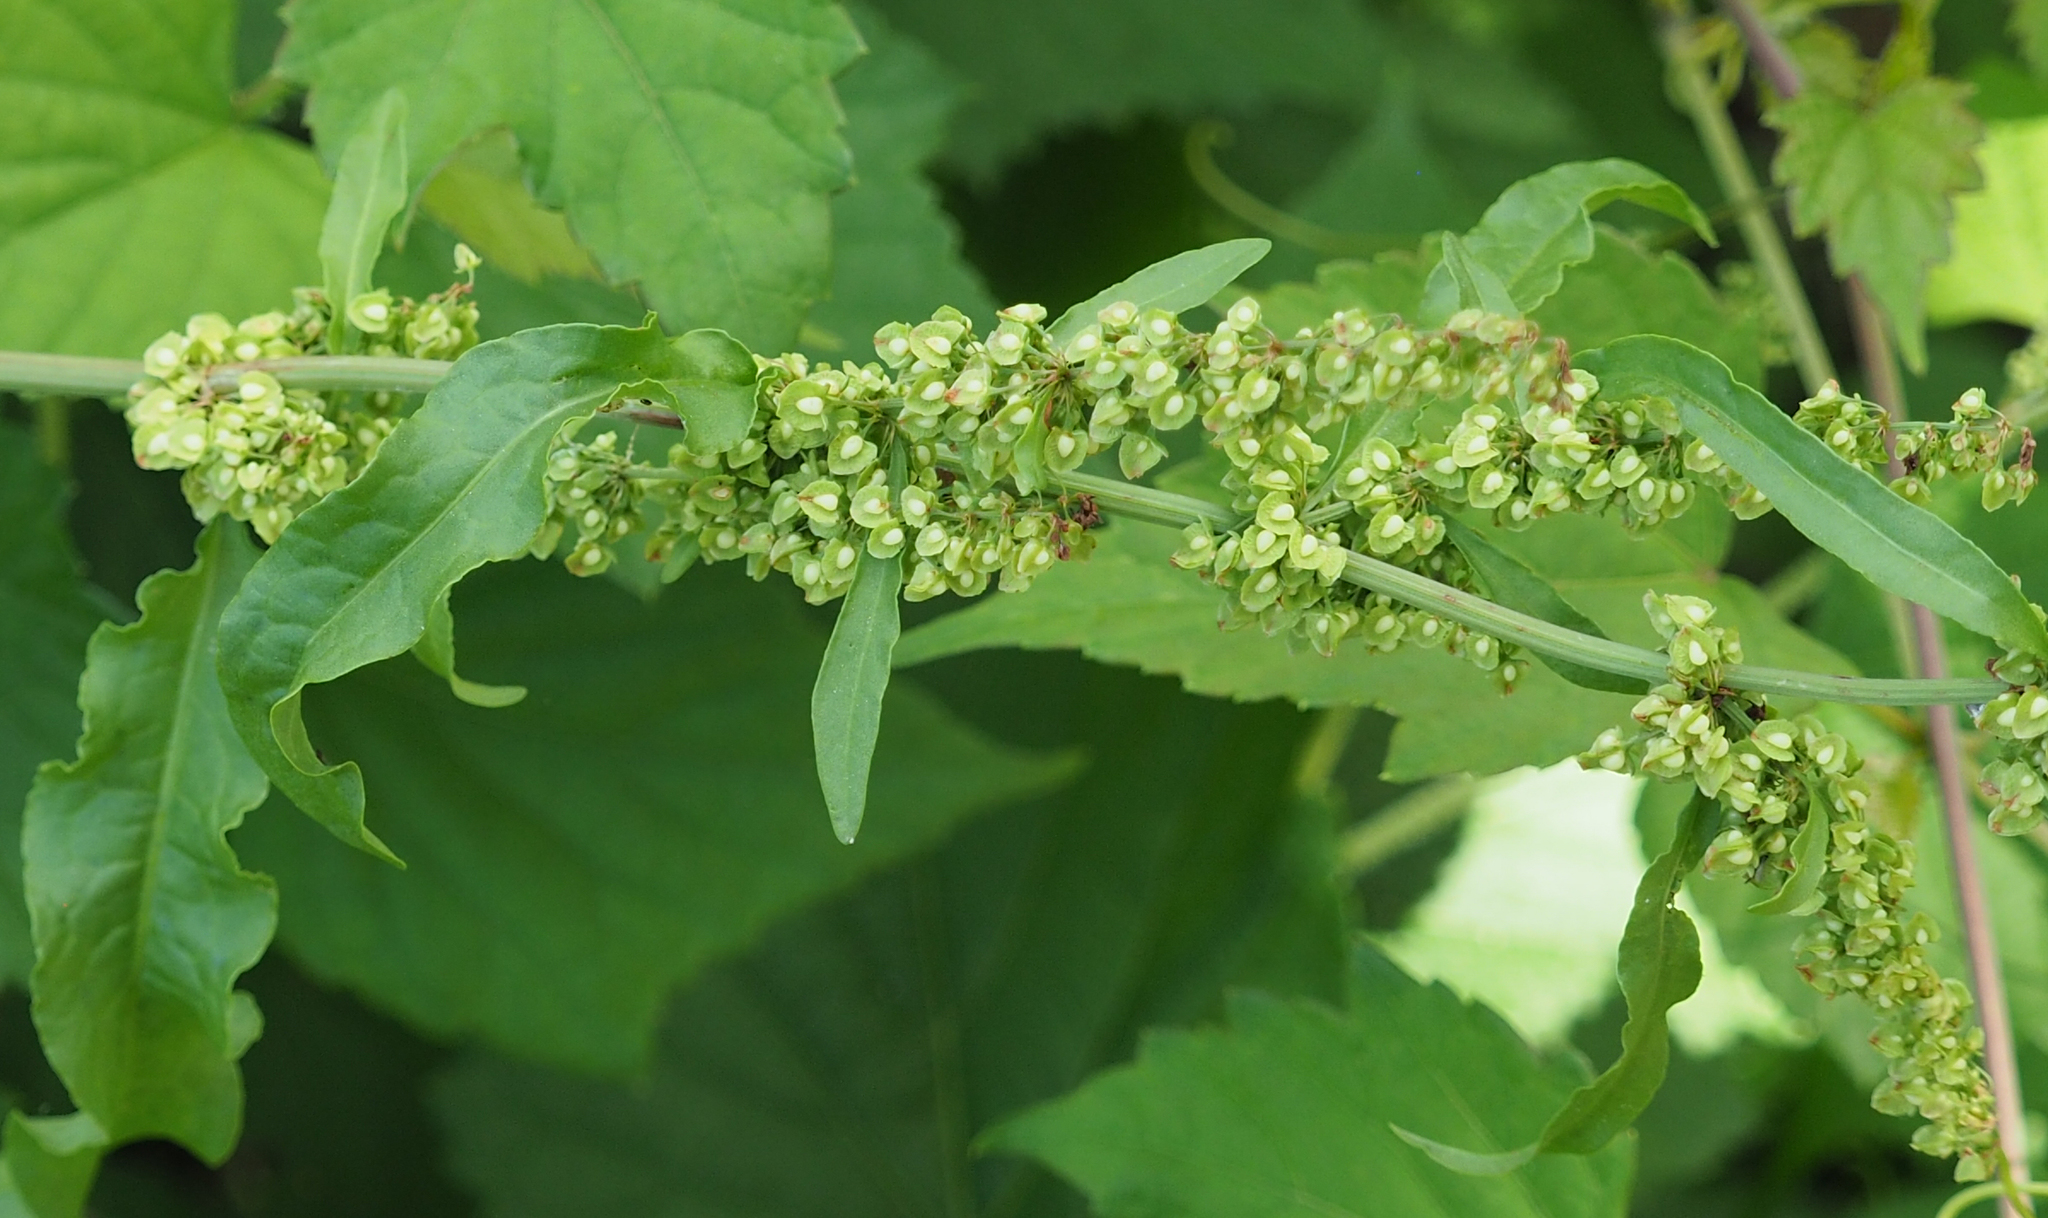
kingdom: Plantae
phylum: Tracheophyta
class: Magnoliopsida
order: Caryophyllales
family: Polygonaceae
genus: Rumex
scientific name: Rumex crispus
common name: Curled dock
